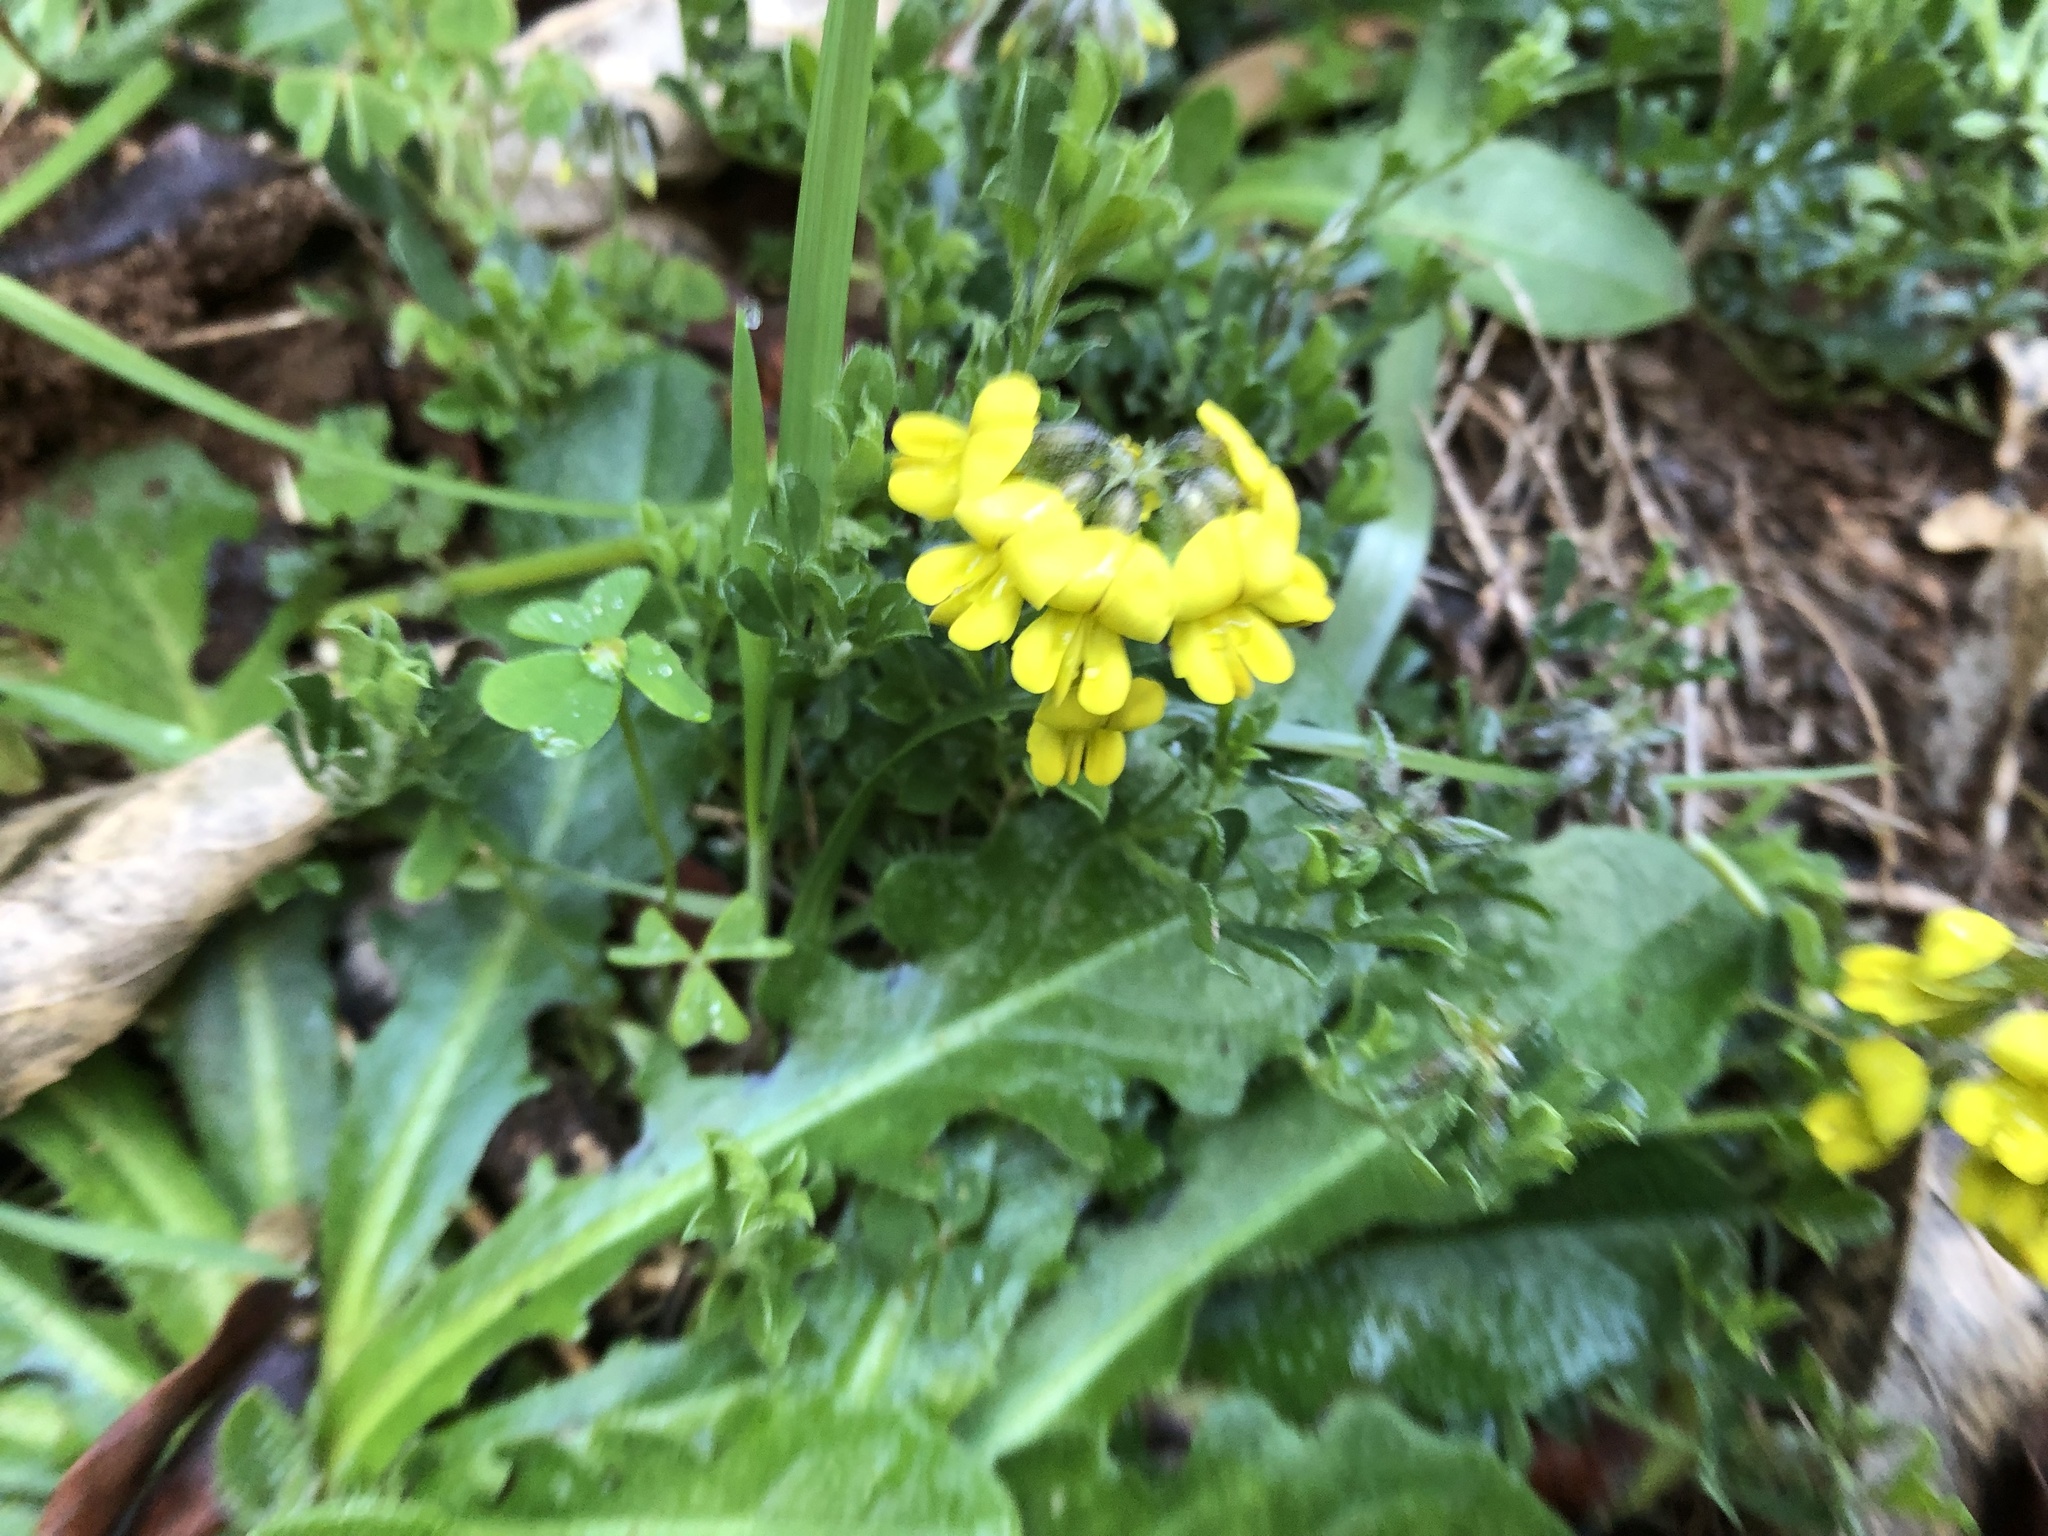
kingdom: Plantae
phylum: Tracheophyta
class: Magnoliopsida
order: Fabales
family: Fabaceae
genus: Lotononis
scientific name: Lotononis umbellata
